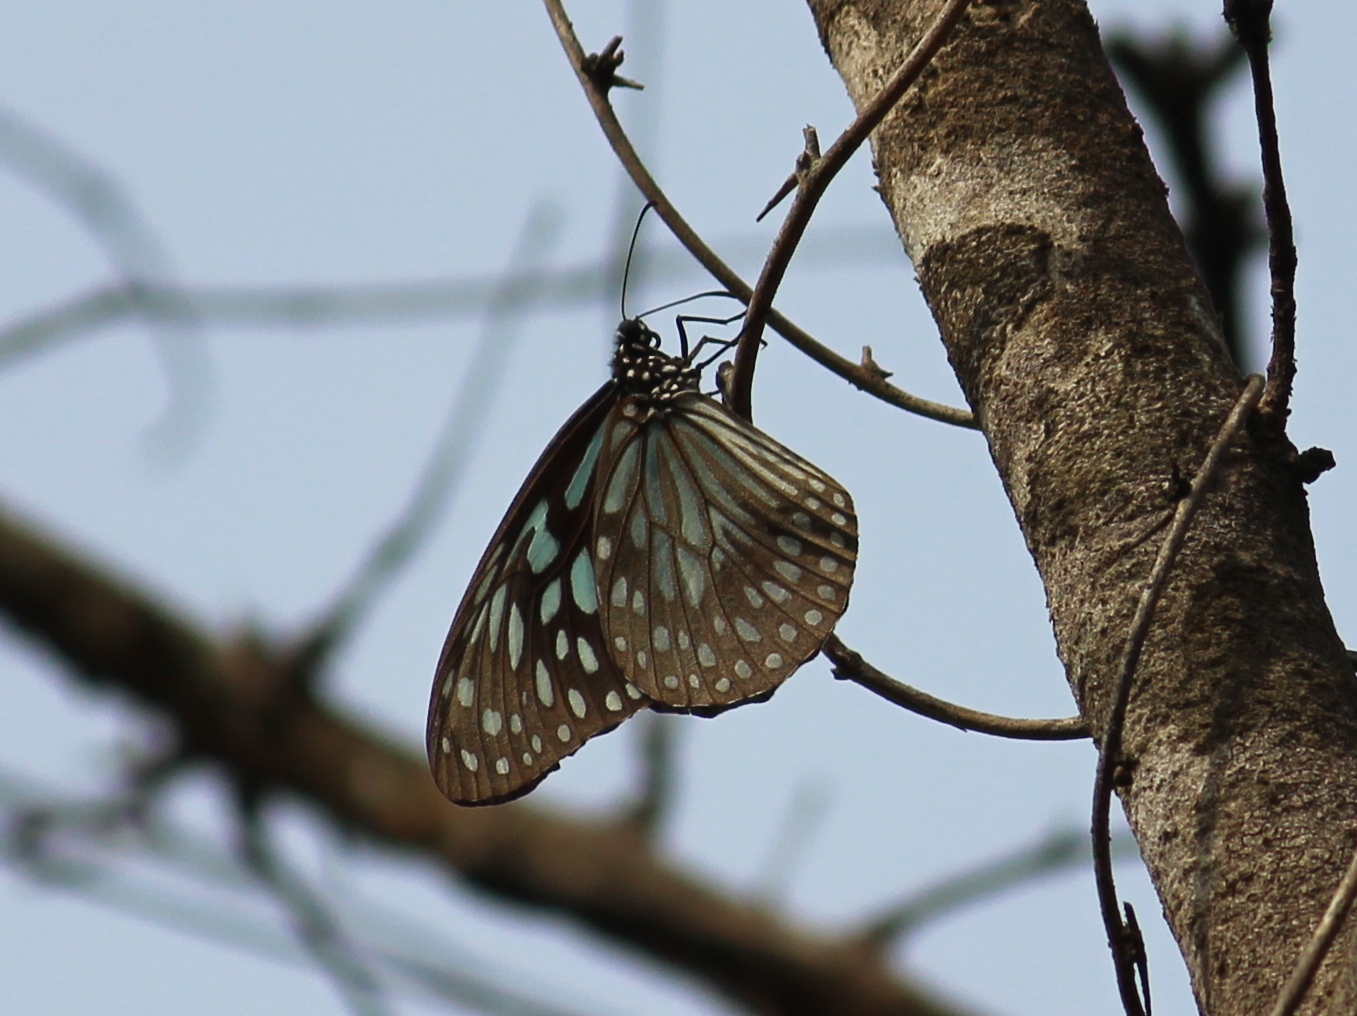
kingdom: Animalia
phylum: Arthropoda
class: Insecta
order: Lepidoptera
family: Nymphalidae
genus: Tirumala
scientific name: Tirumala septentrionis
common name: Dark blue tiger butterfly
